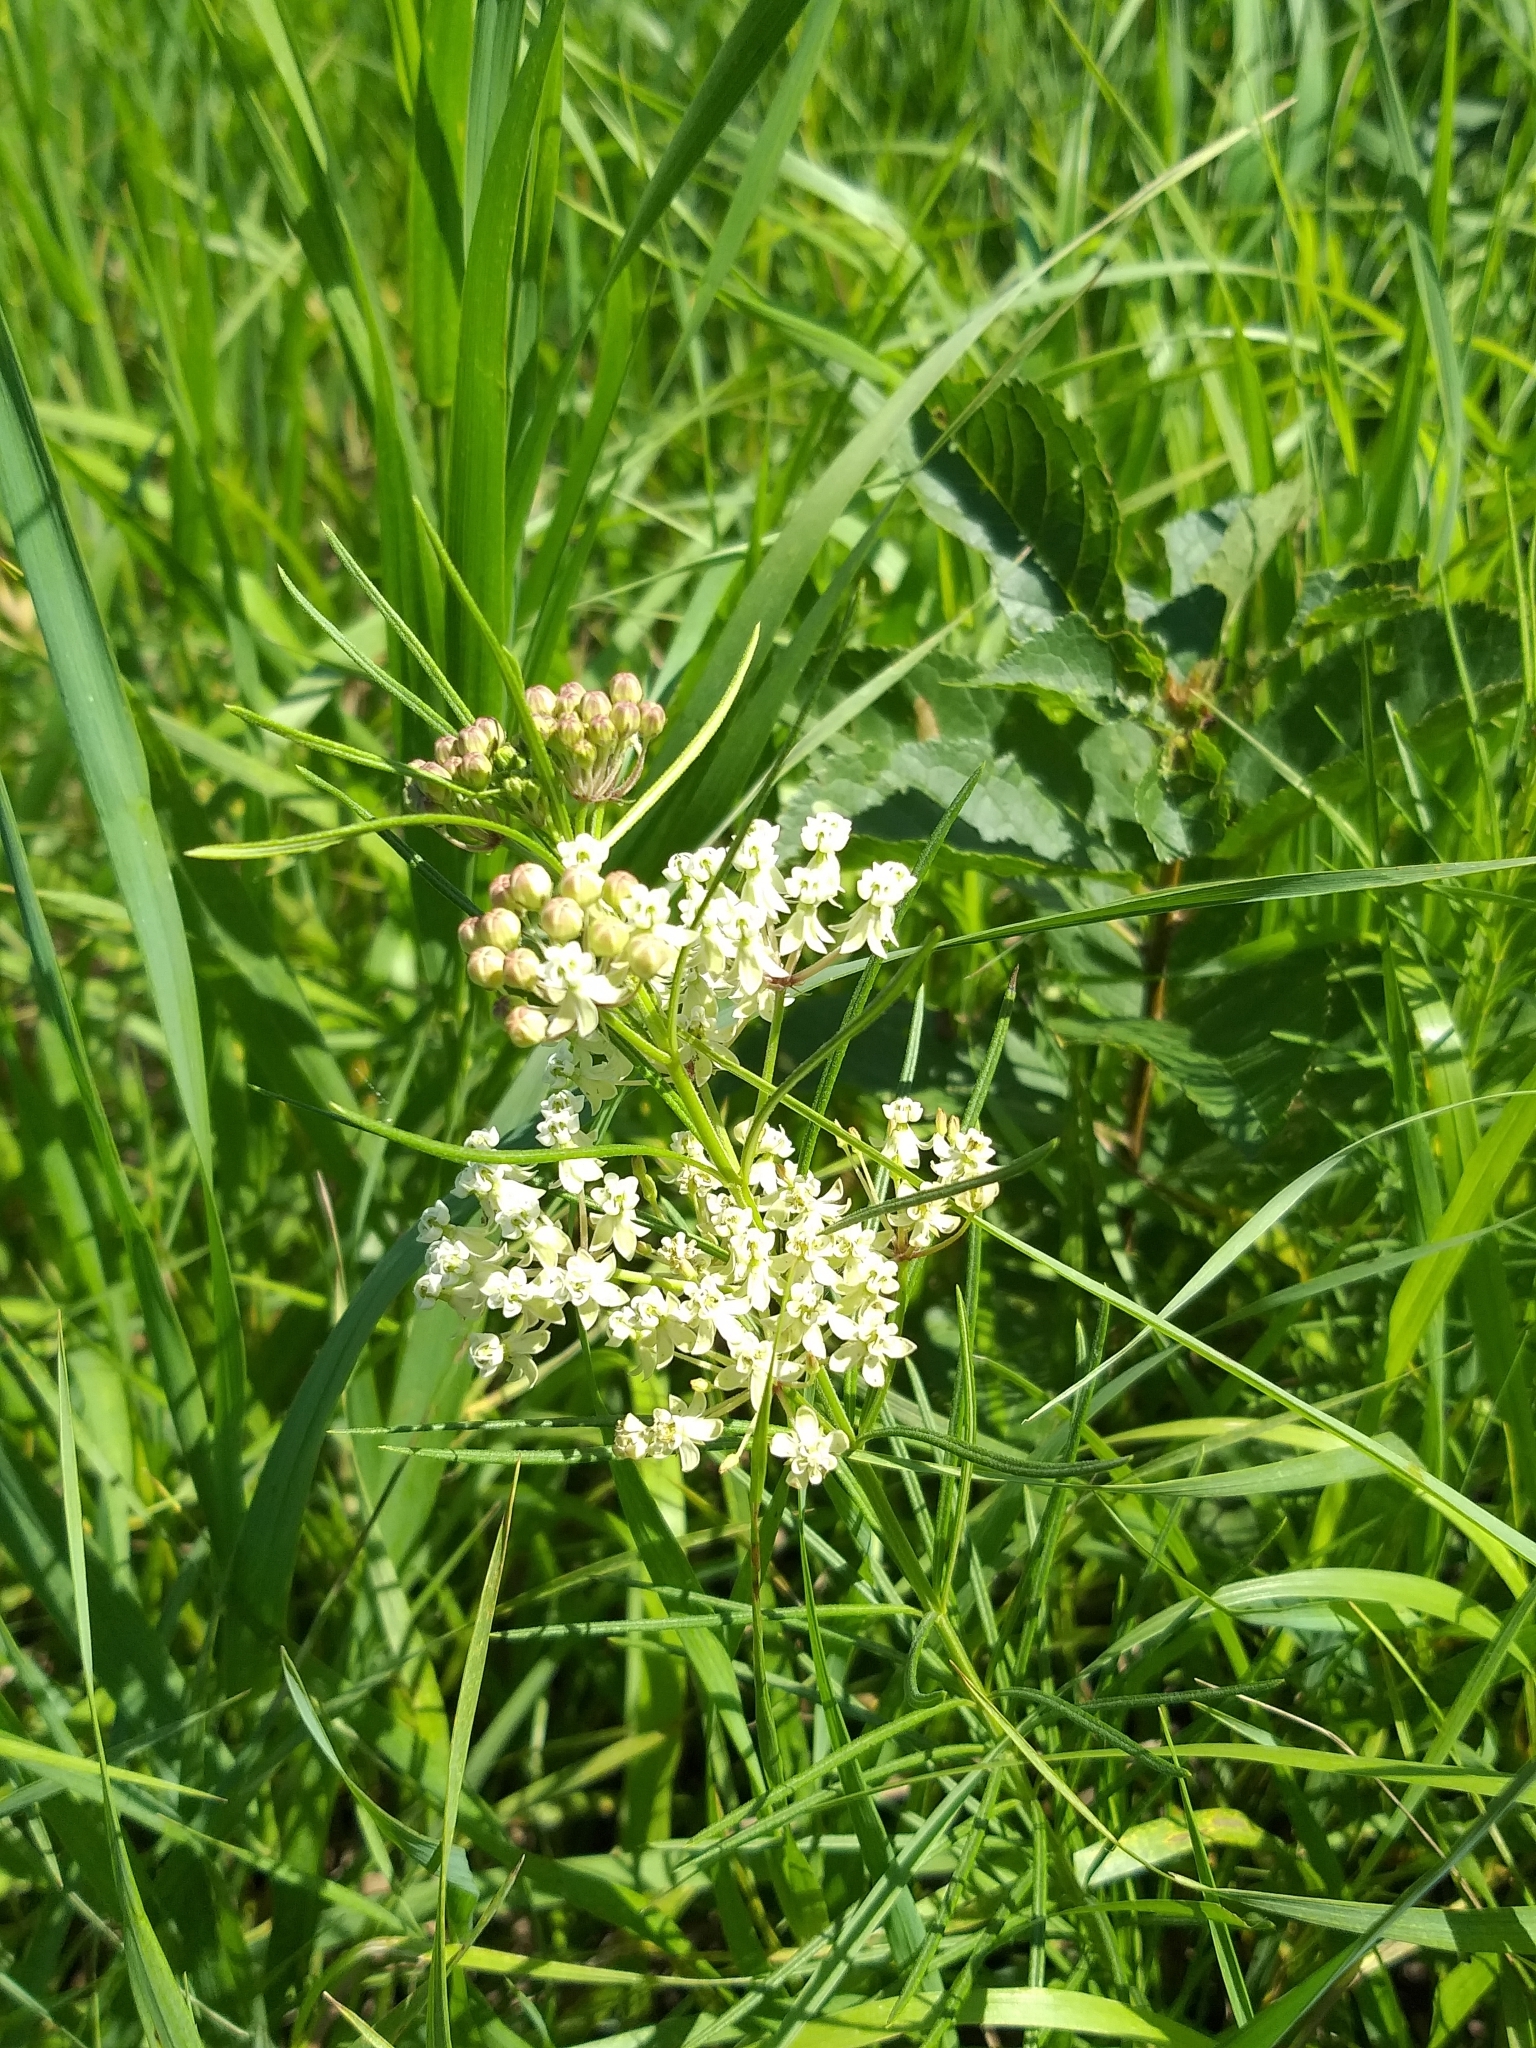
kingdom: Plantae
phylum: Tracheophyta
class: Magnoliopsida
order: Gentianales
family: Apocynaceae
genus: Asclepias
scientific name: Asclepias verticillata
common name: Eastern whorled milkweed
